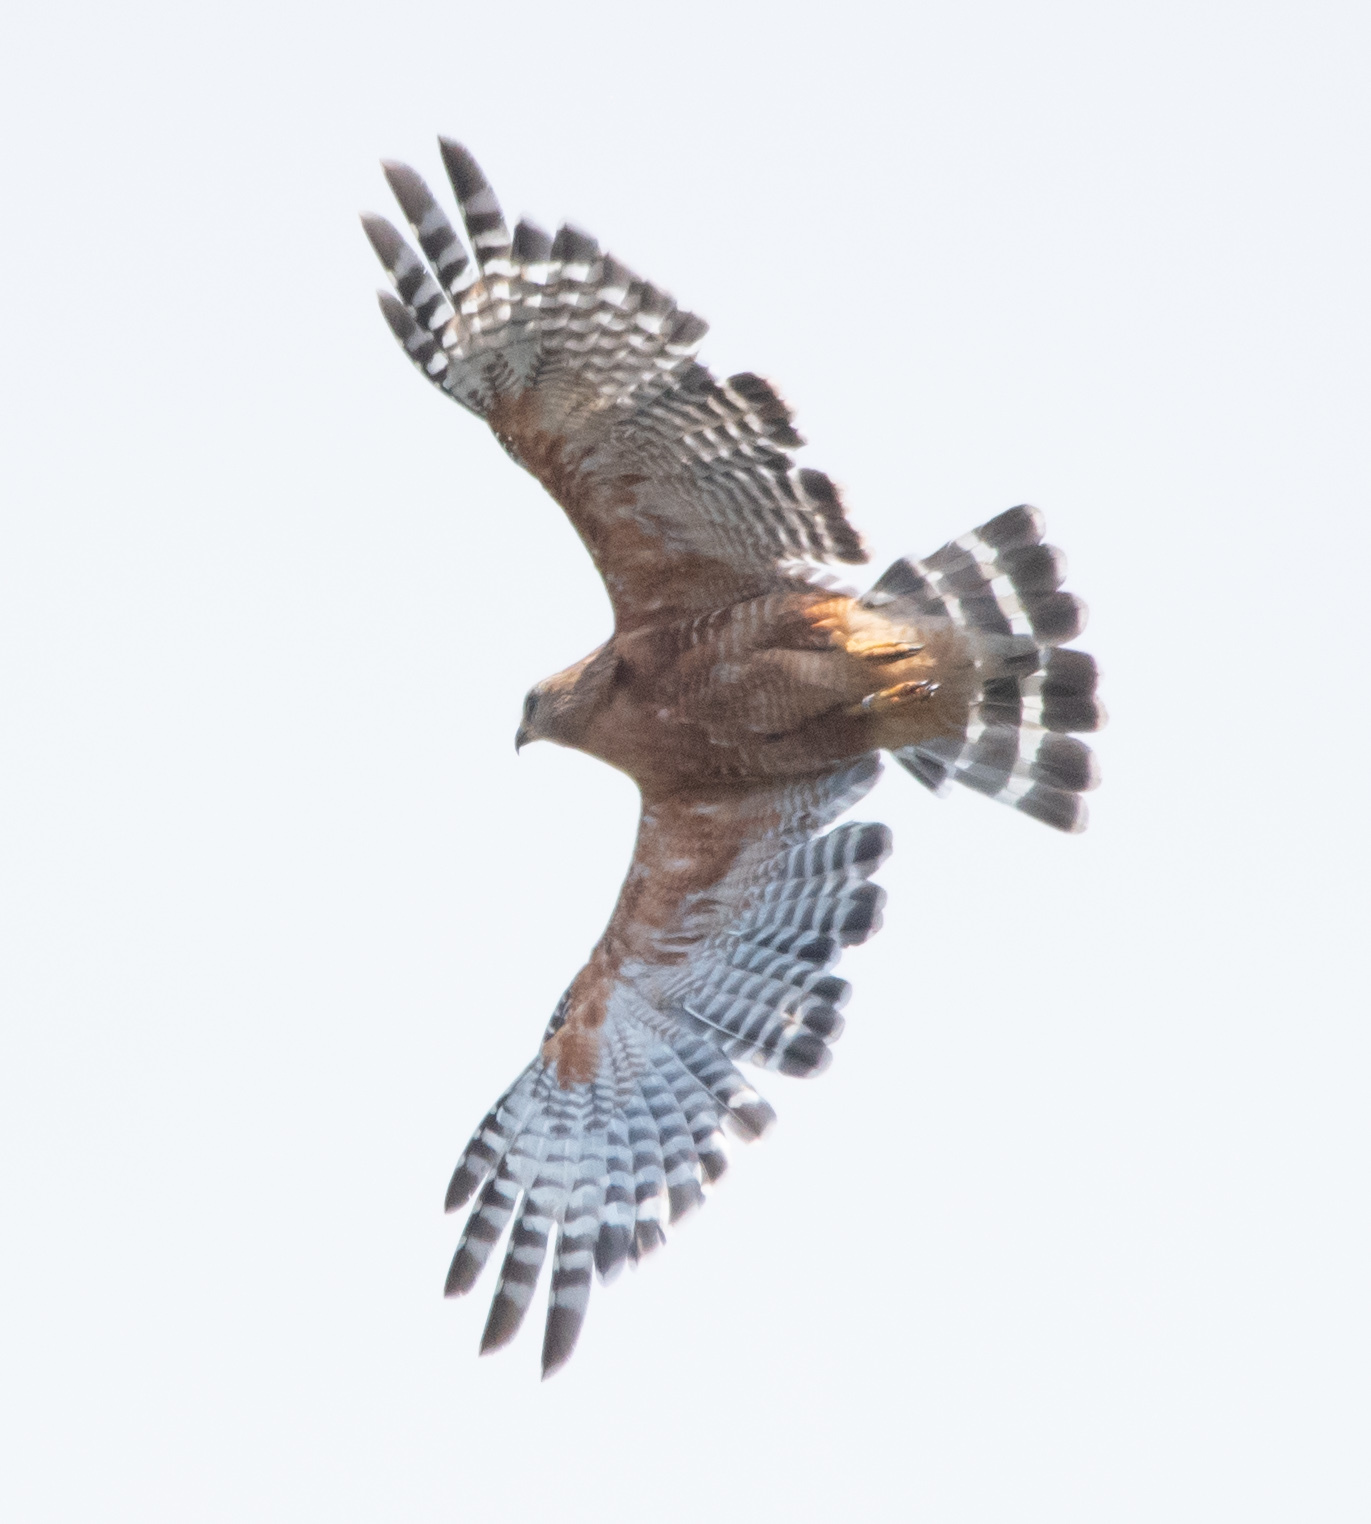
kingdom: Animalia
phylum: Chordata
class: Aves
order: Suliformes
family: Phalacrocoracidae
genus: Urile
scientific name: Urile penicillatus
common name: Brandt's cormorant
